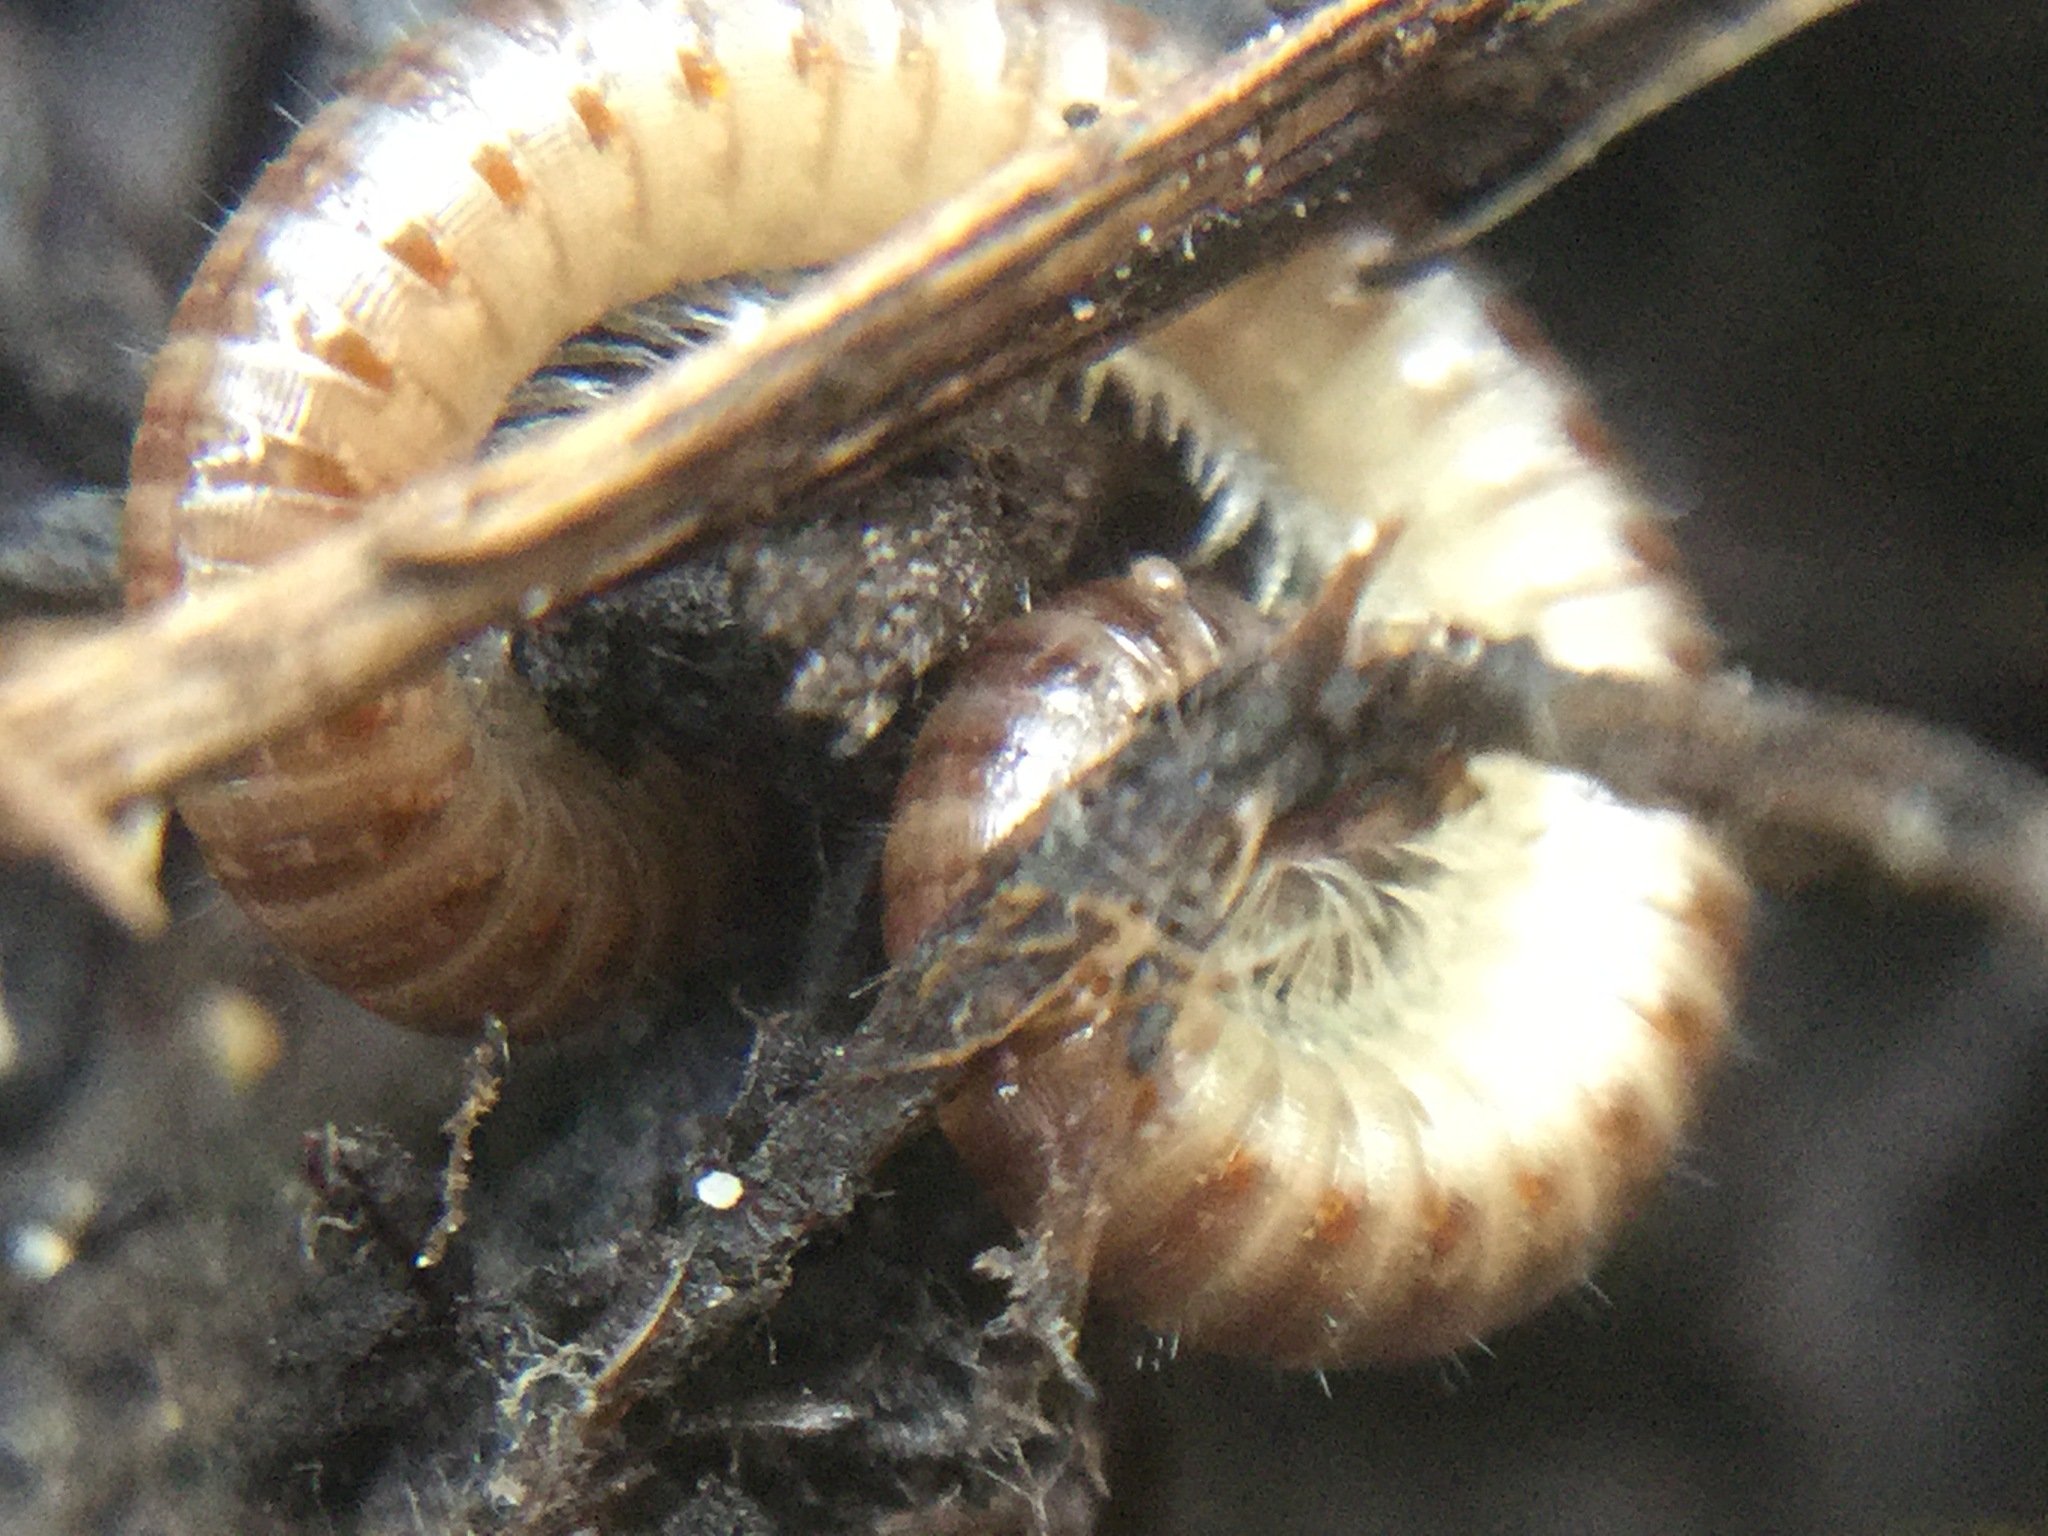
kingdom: Animalia
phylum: Arthropoda
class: Diplopoda
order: Julida
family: Julidae
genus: Ophyiulus
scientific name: Ophyiulus pilosus
